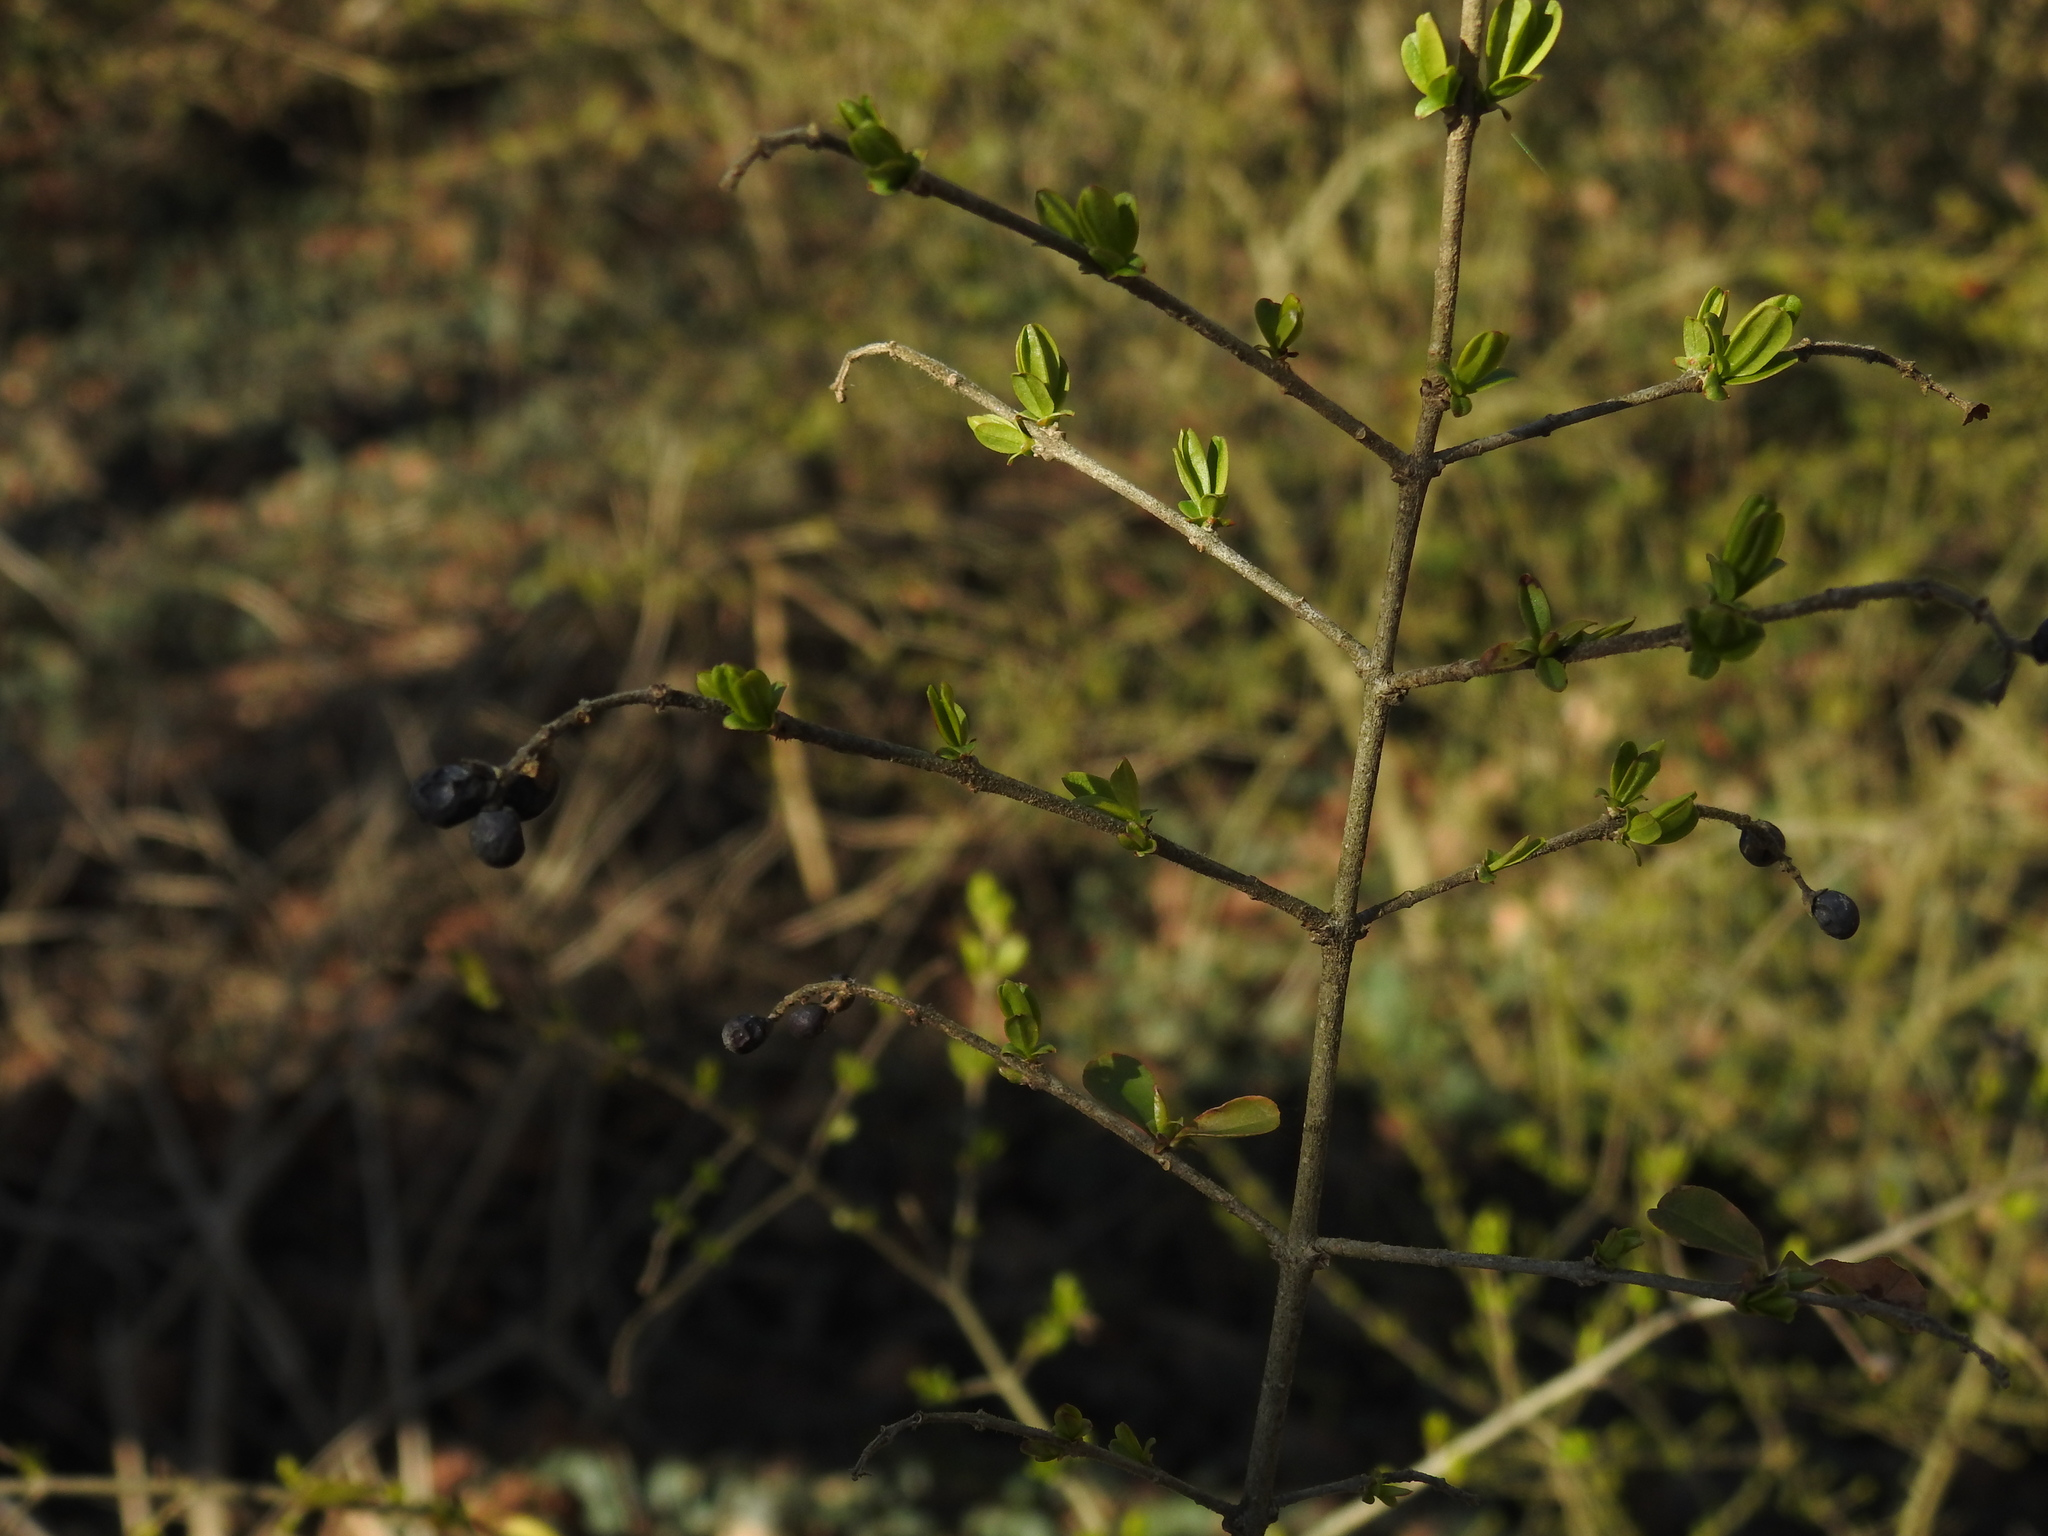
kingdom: Plantae
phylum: Tracheophyta
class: Magnoliopsida
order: Lamiales
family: Oleaceae
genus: Ligustrum
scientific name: Ligustrum obtusifolium
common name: Border privet
